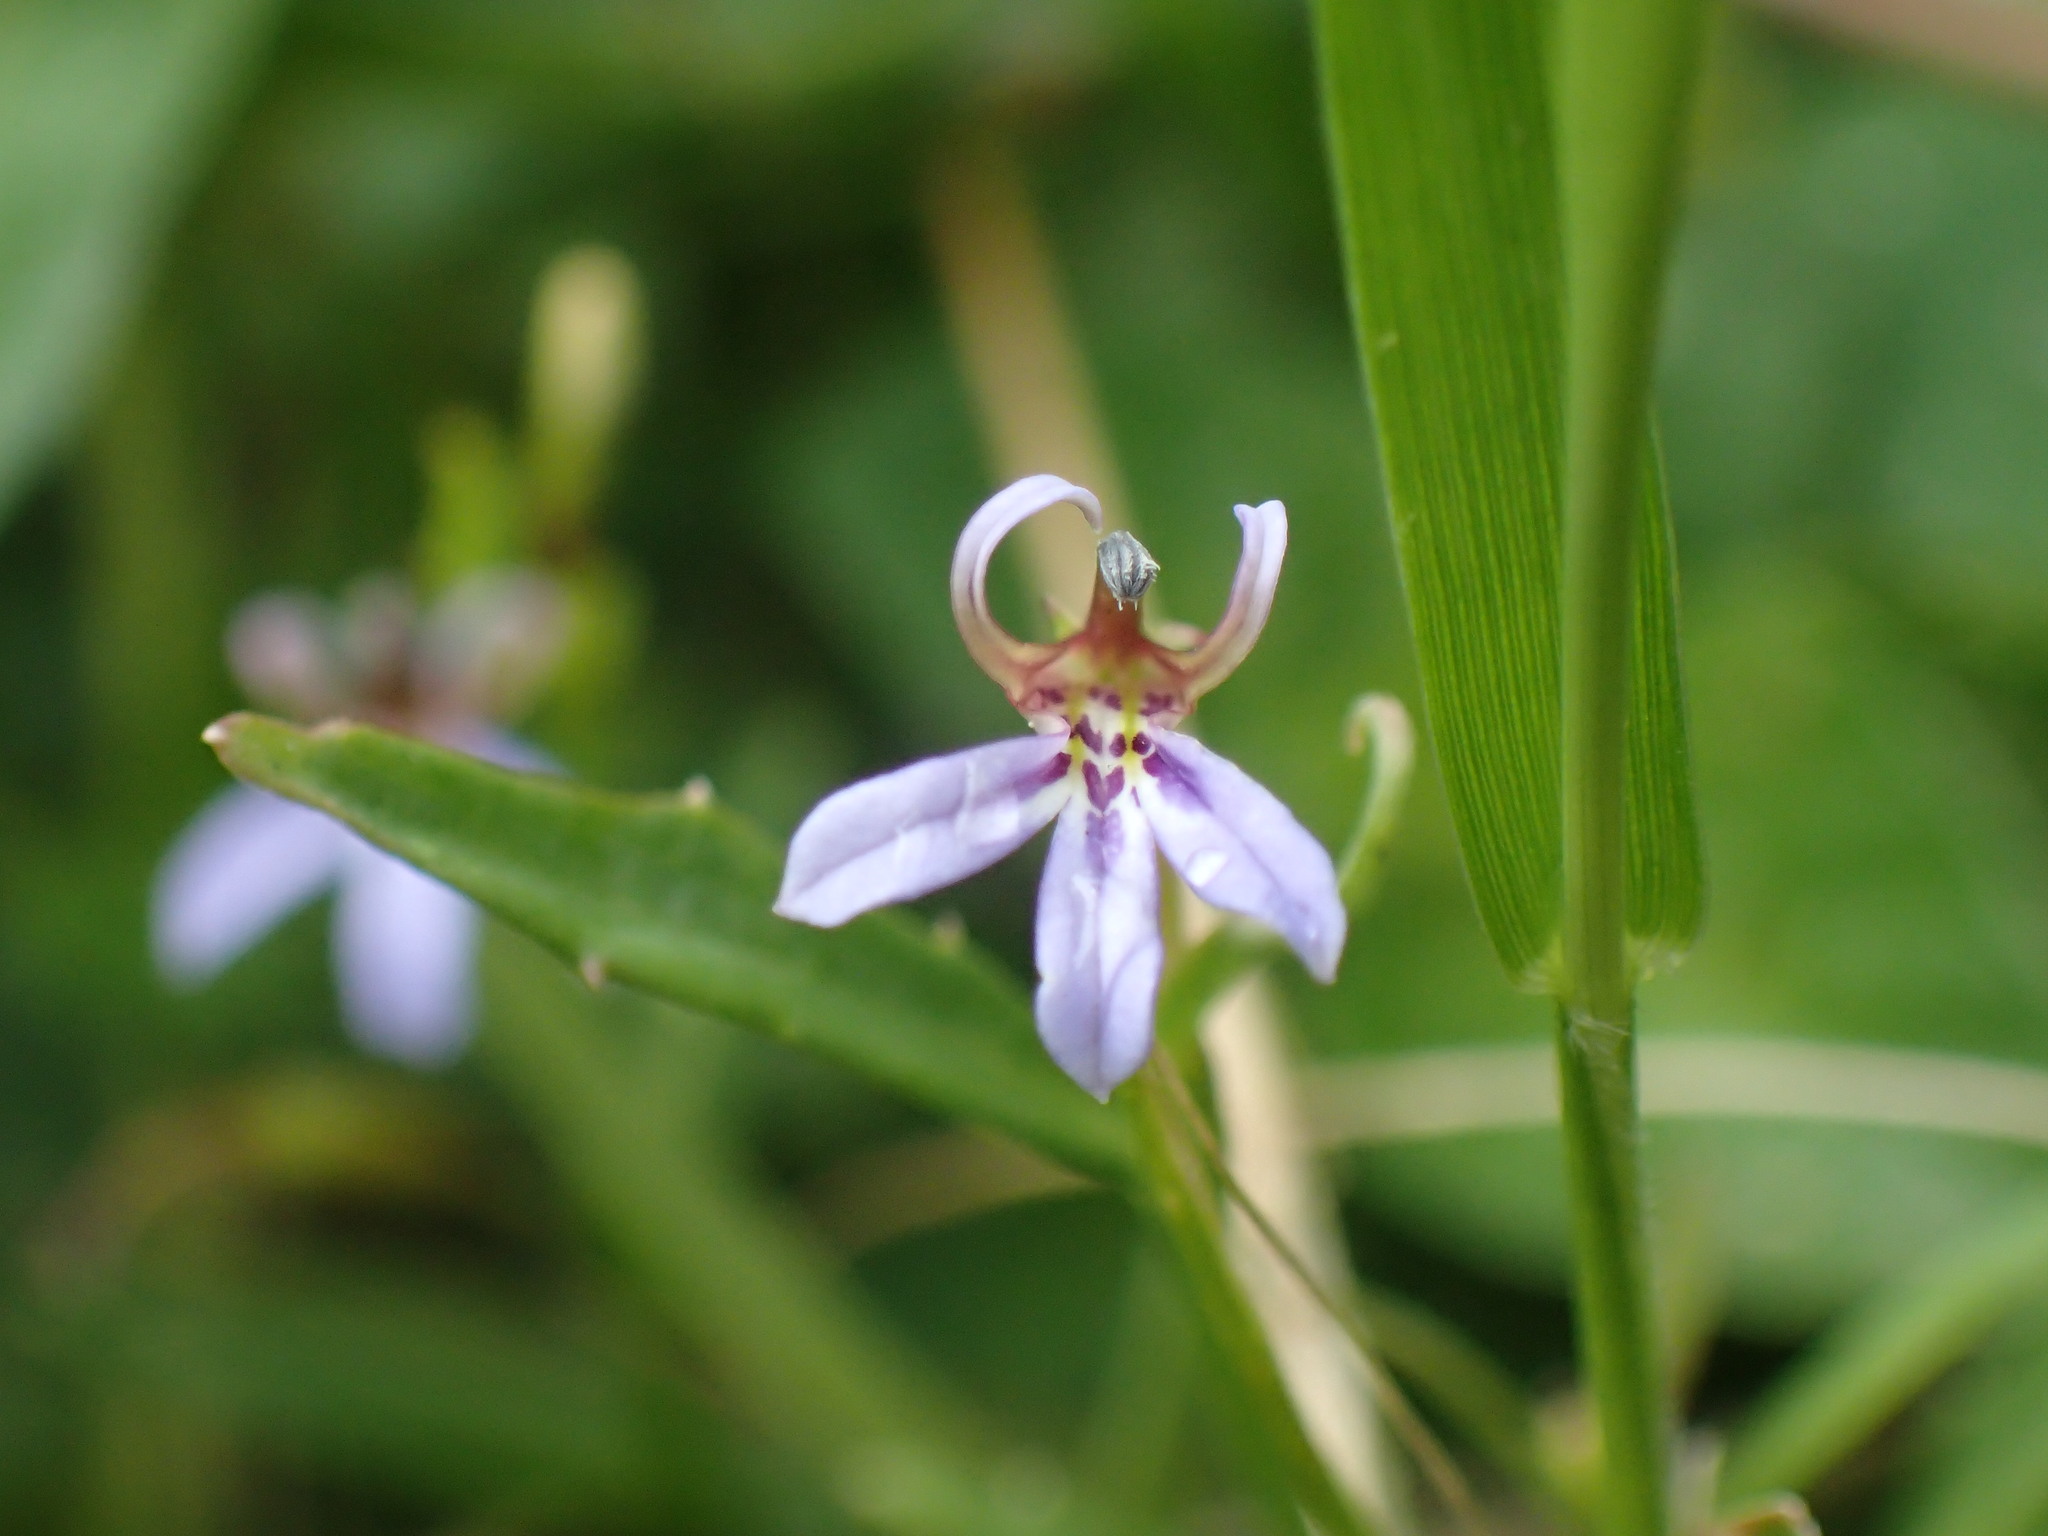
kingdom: Plantae
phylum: Tracheophyta
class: Magnoliopsida
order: Asterales
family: Campanulaceae
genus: Lobelia
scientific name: Lobelia anceps
